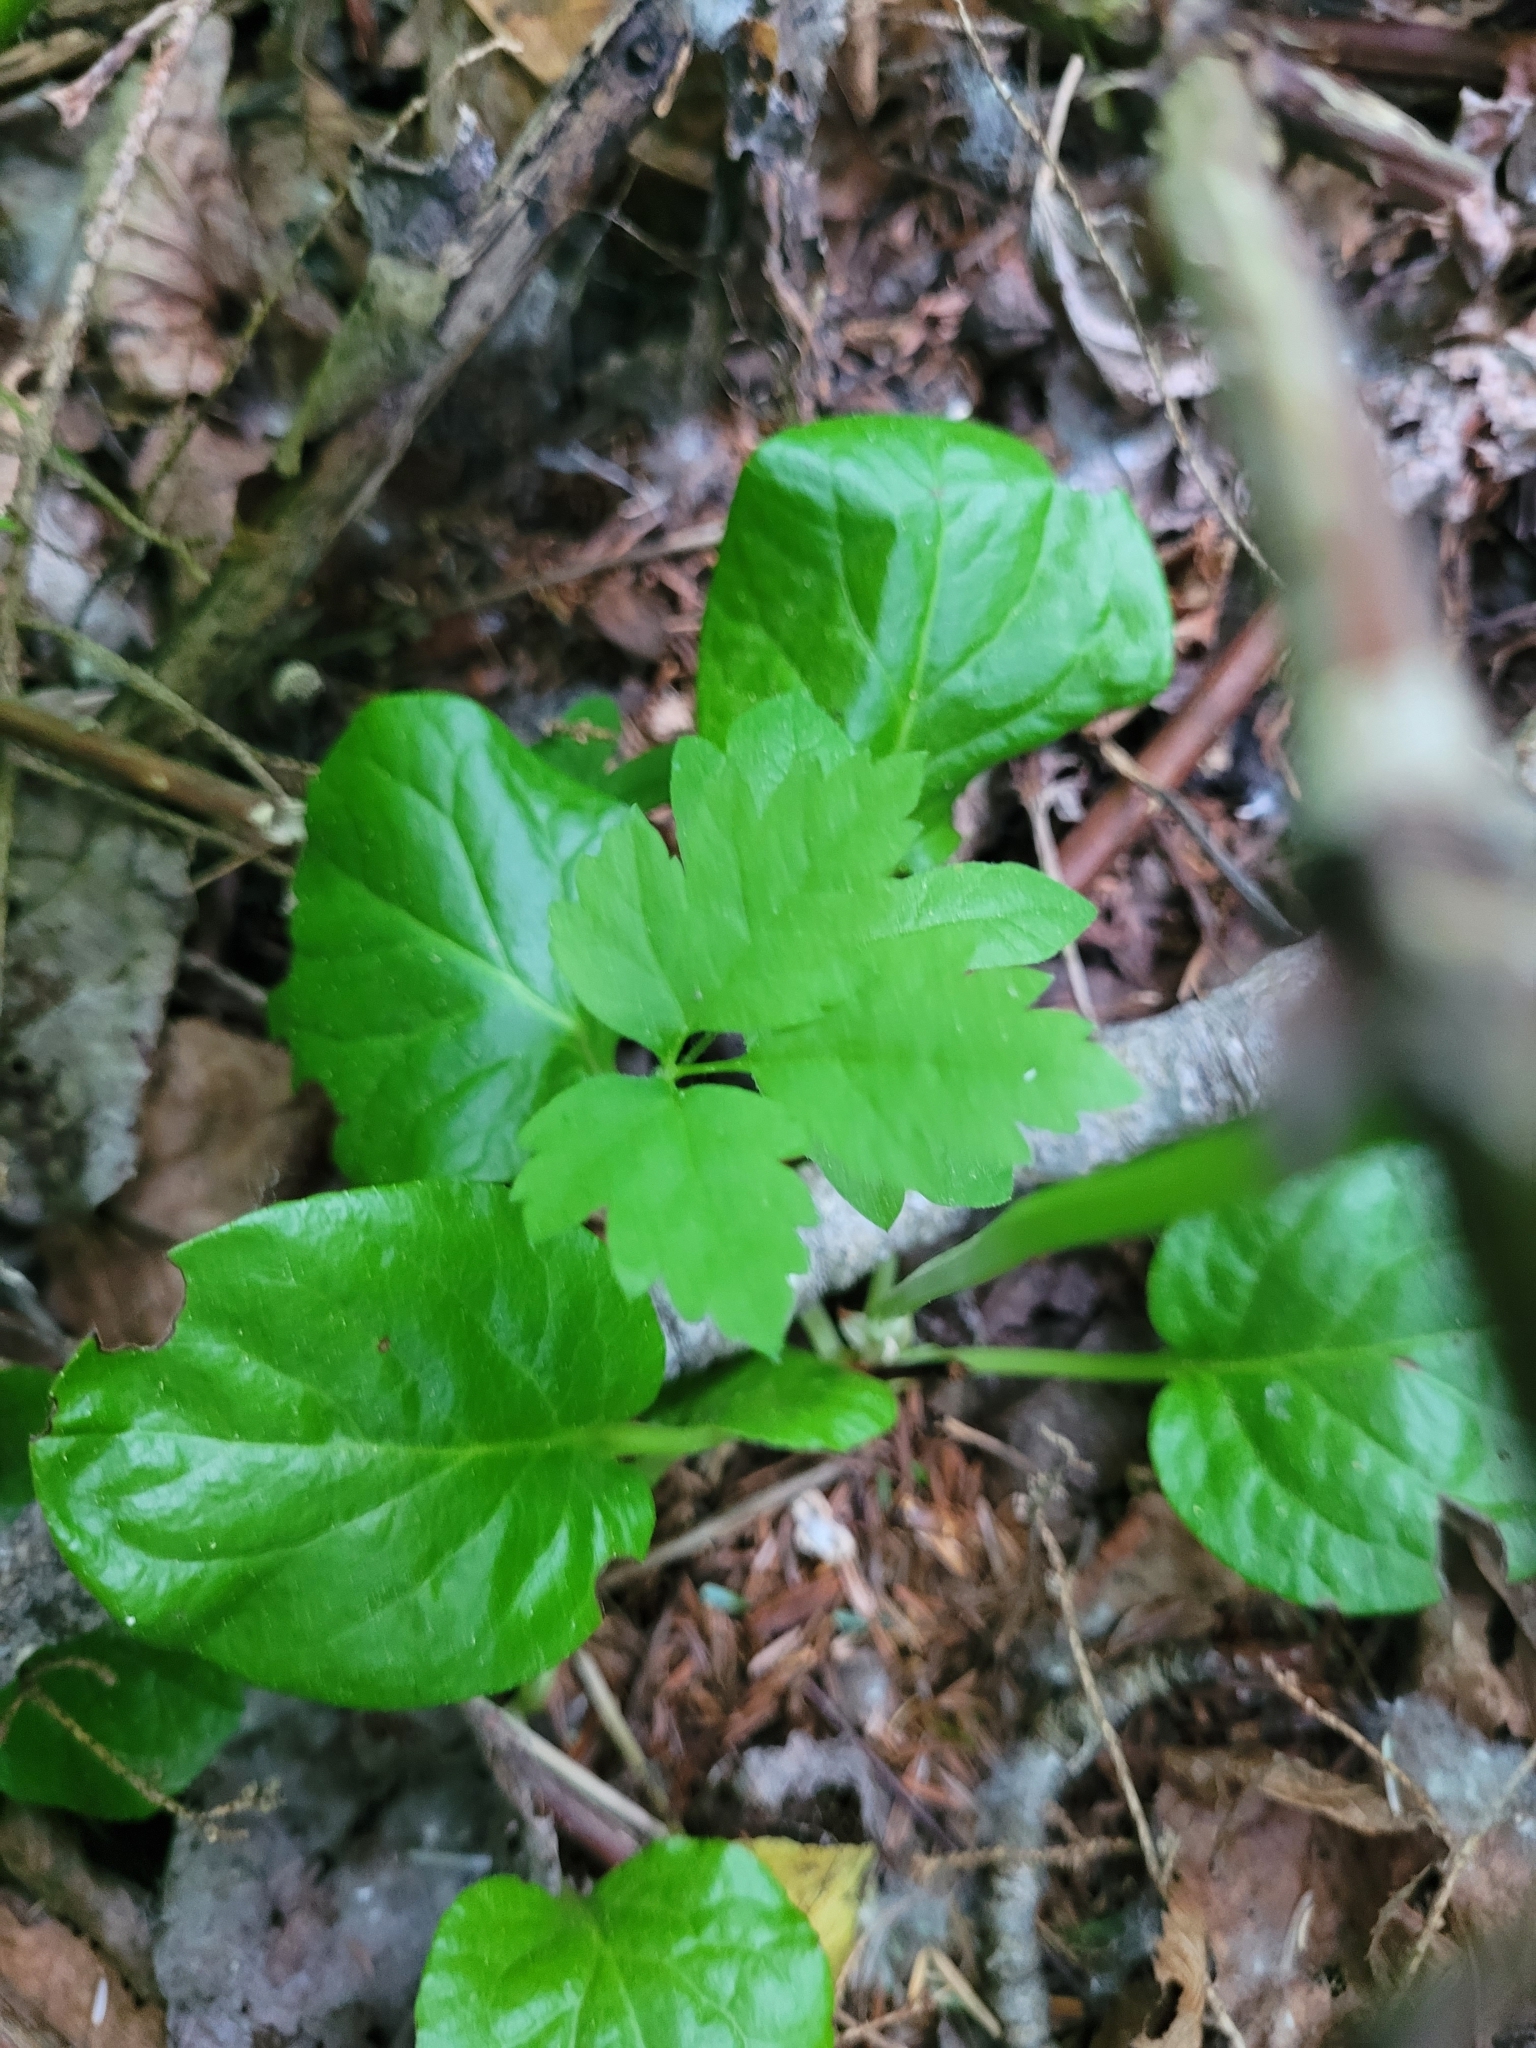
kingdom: Plantae
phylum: Tracheophyta
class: Magnoliopsida
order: Ericales
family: Ericaceae
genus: Pyrola
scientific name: Pyrola asarifolia
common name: Bog wintergreen
